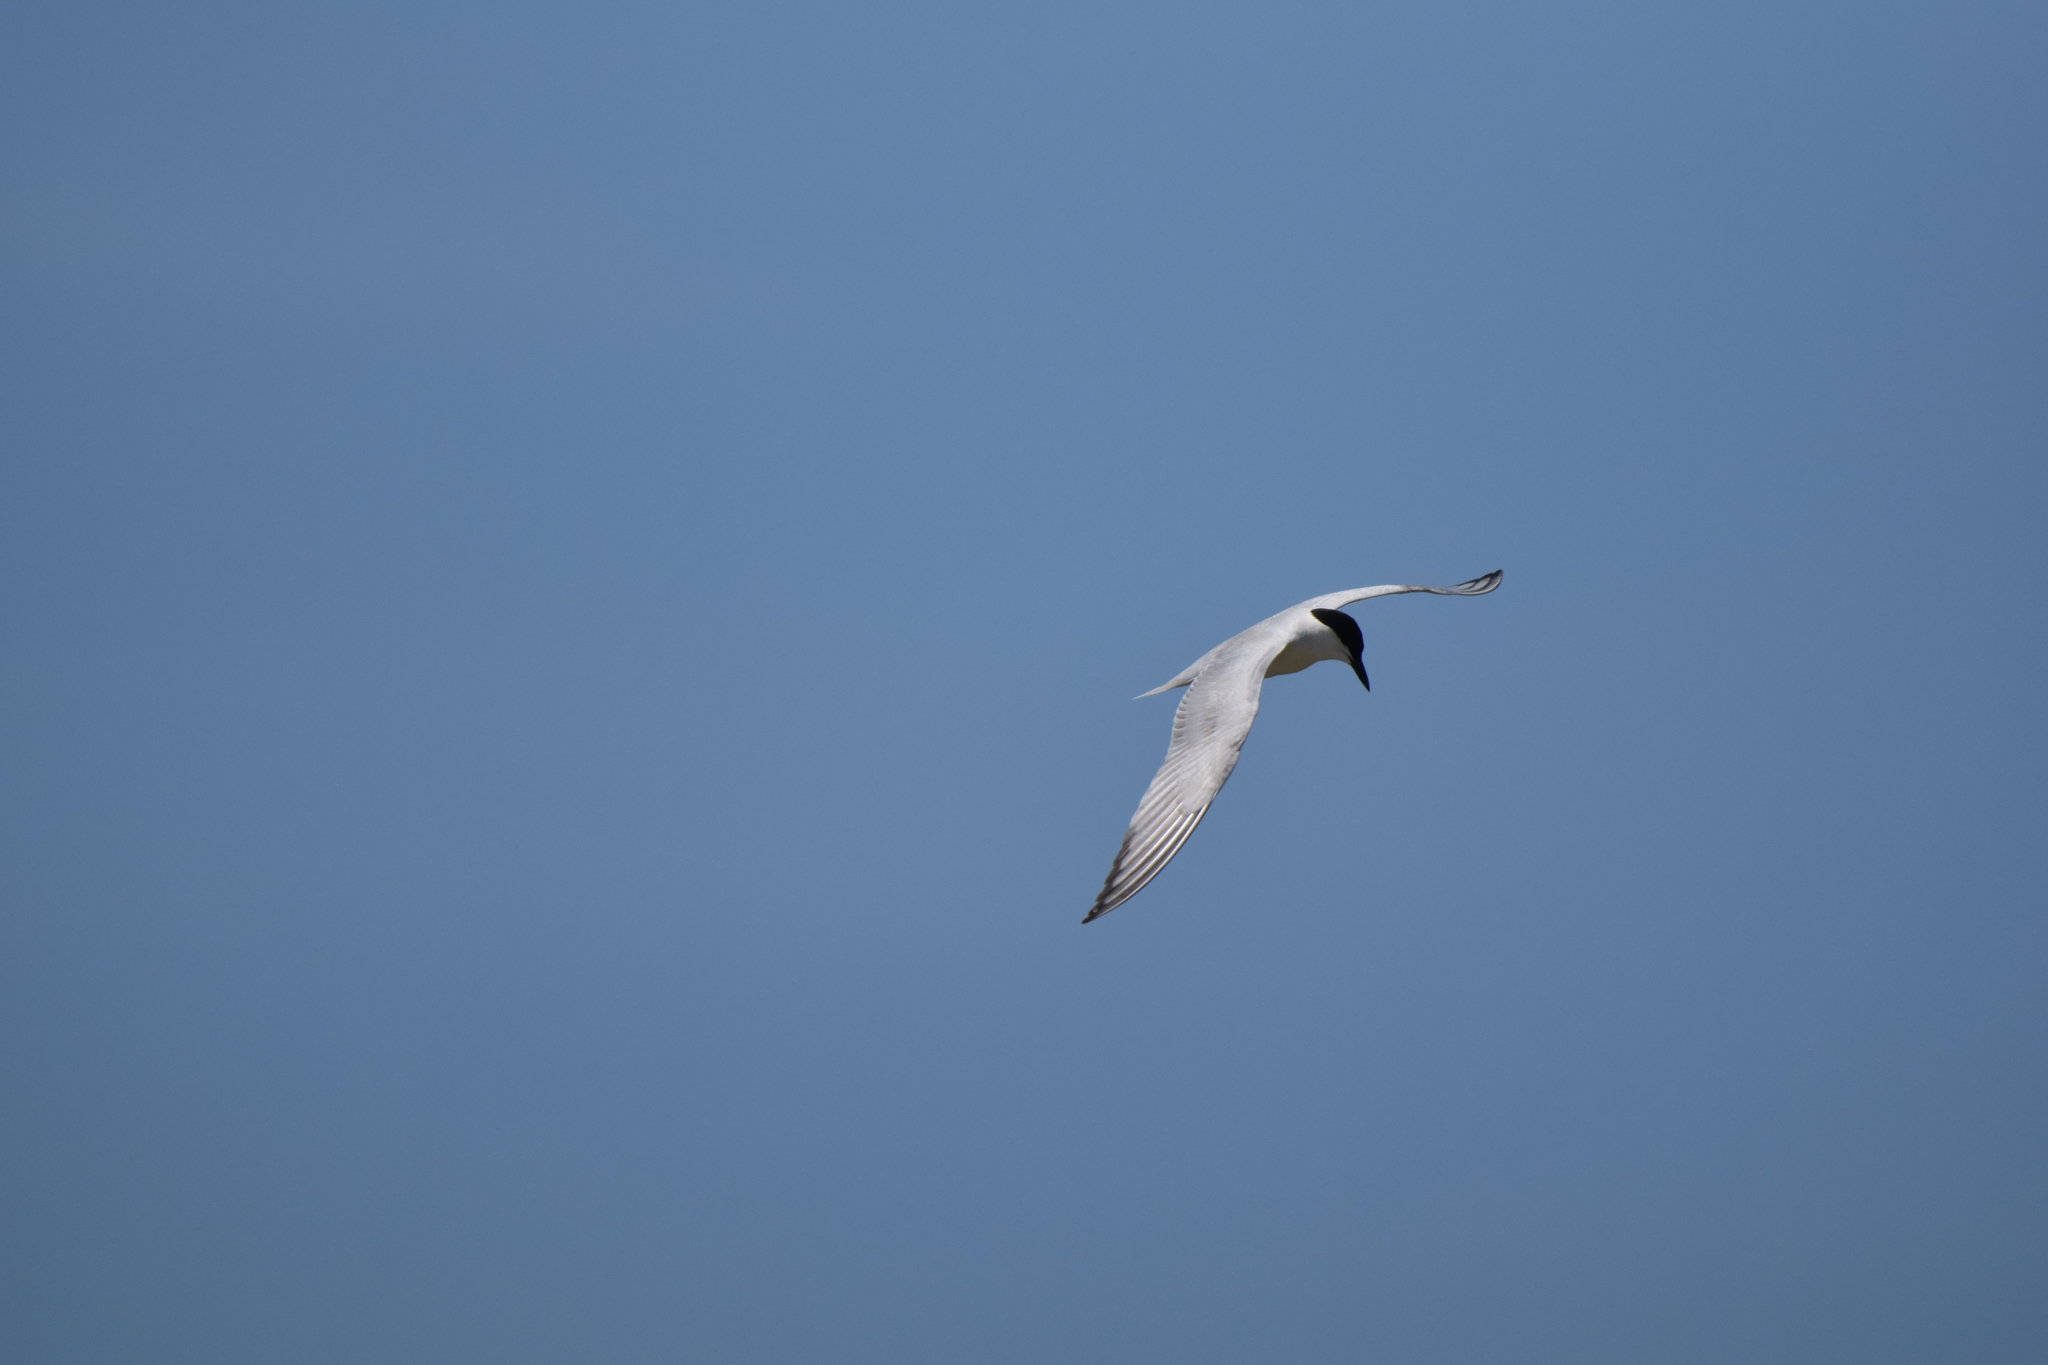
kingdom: Animalia
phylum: Chordata
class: Aves
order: Charadriiformes
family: Laridae
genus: Gelochelidon
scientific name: Gelochelidon nilotica
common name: Gull-billed tern
